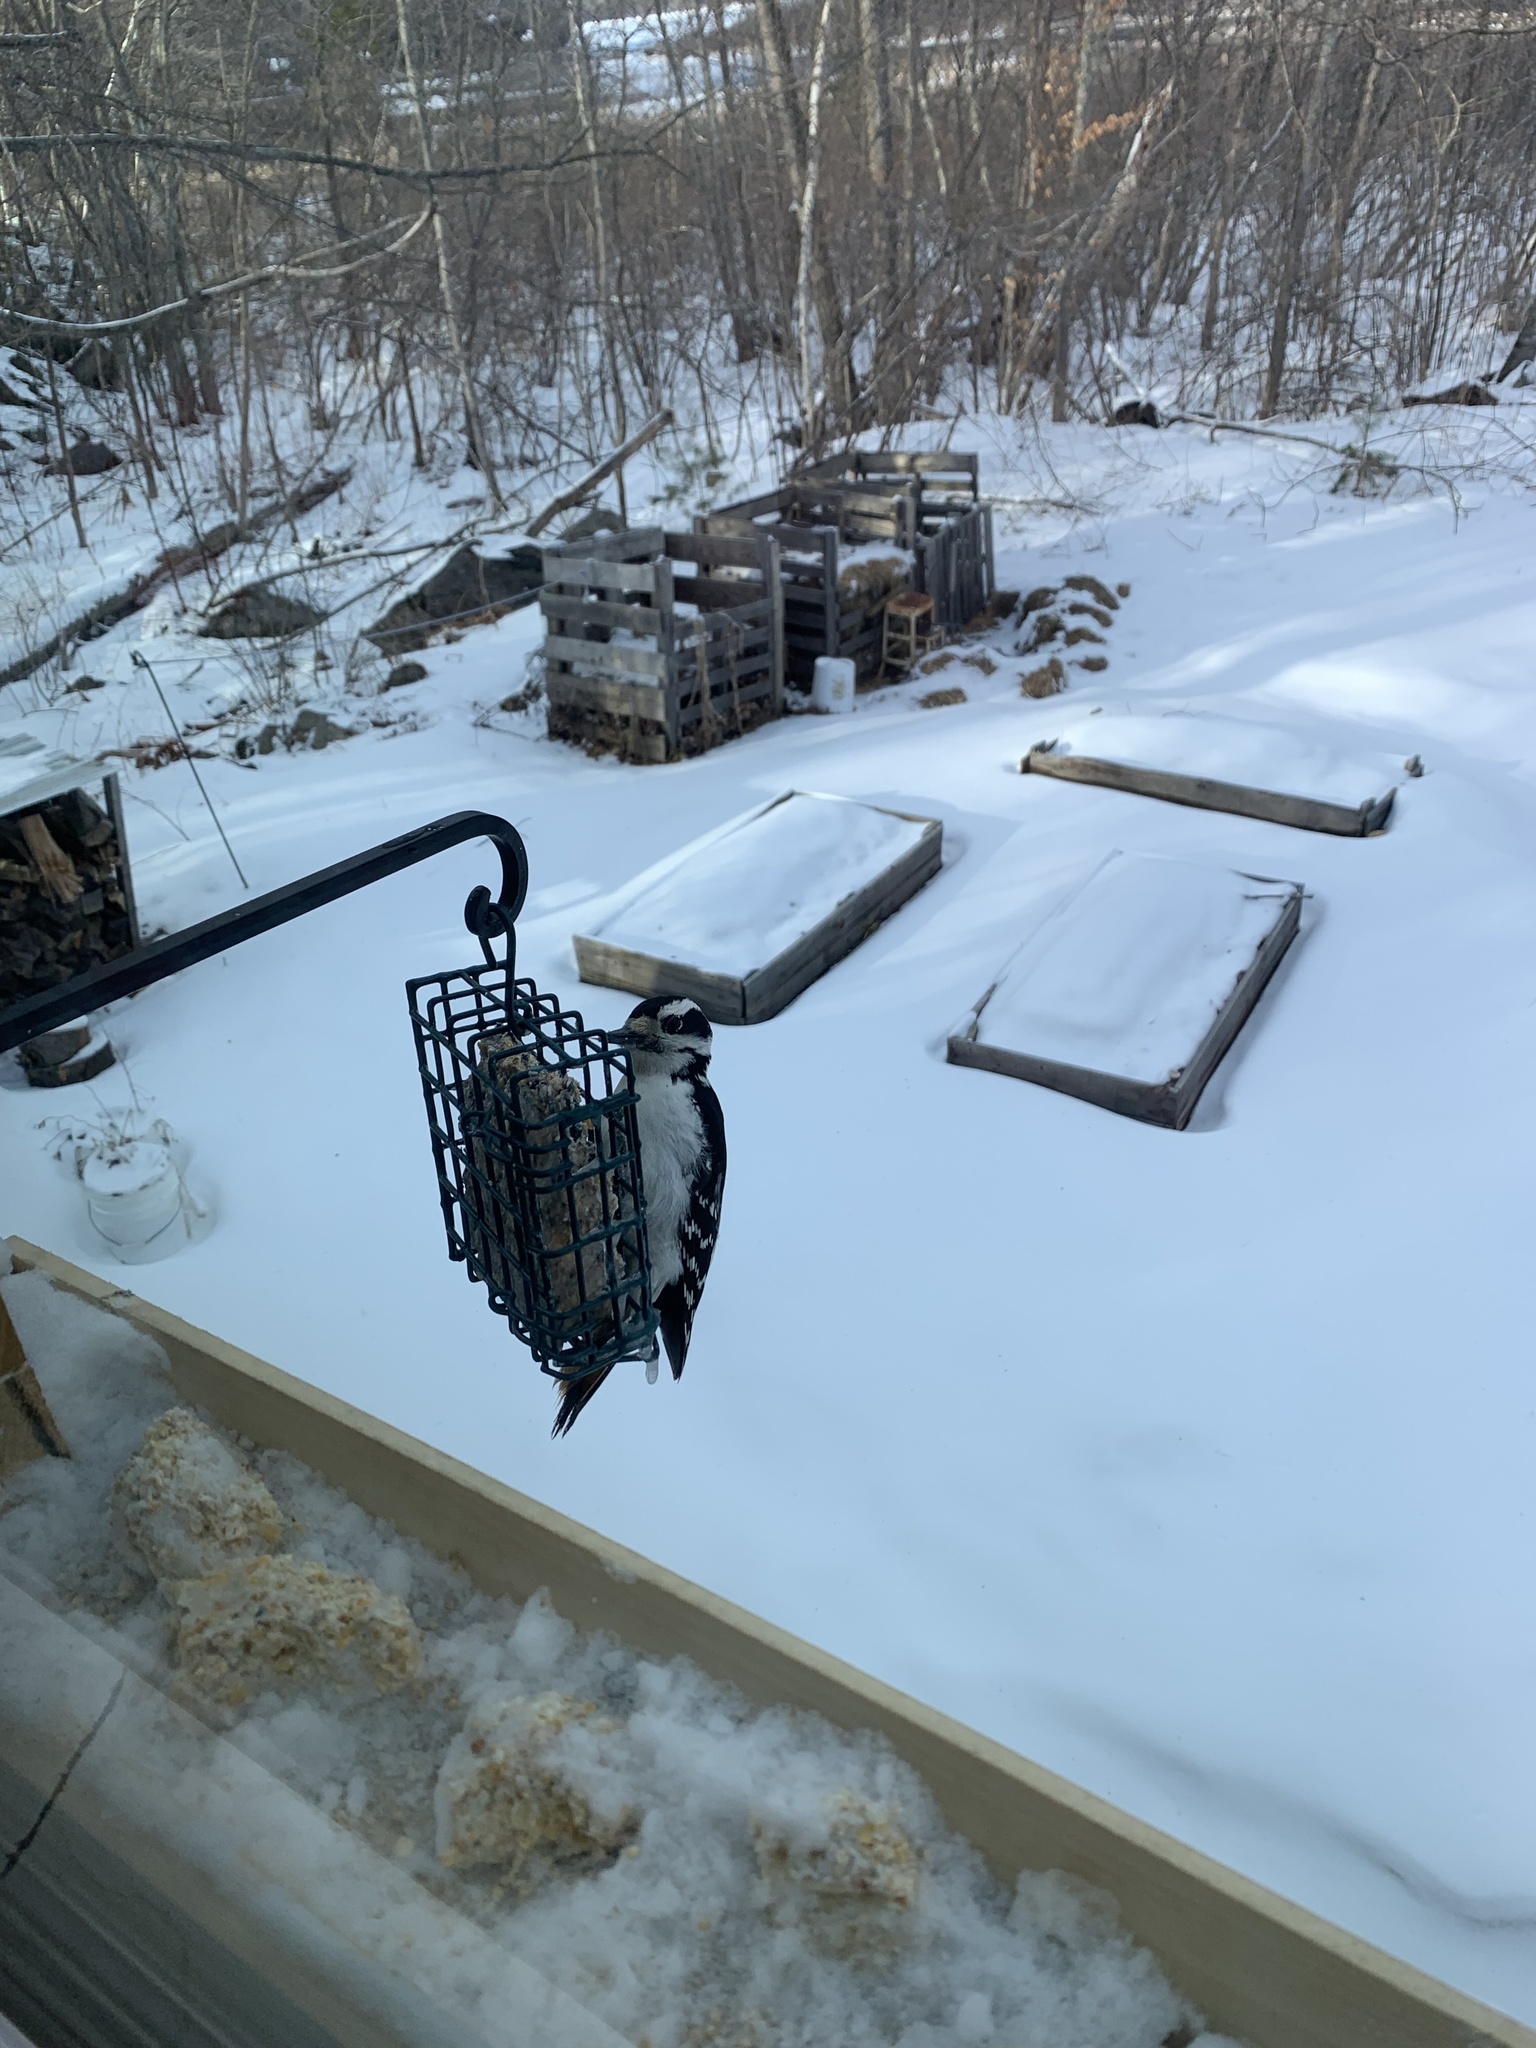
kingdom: Animalia
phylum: Chordata
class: Aves
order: Piciformes
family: Picidae
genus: Leuconotopicus
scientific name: Leuconotopicus villosus
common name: Hairy woodpecker
